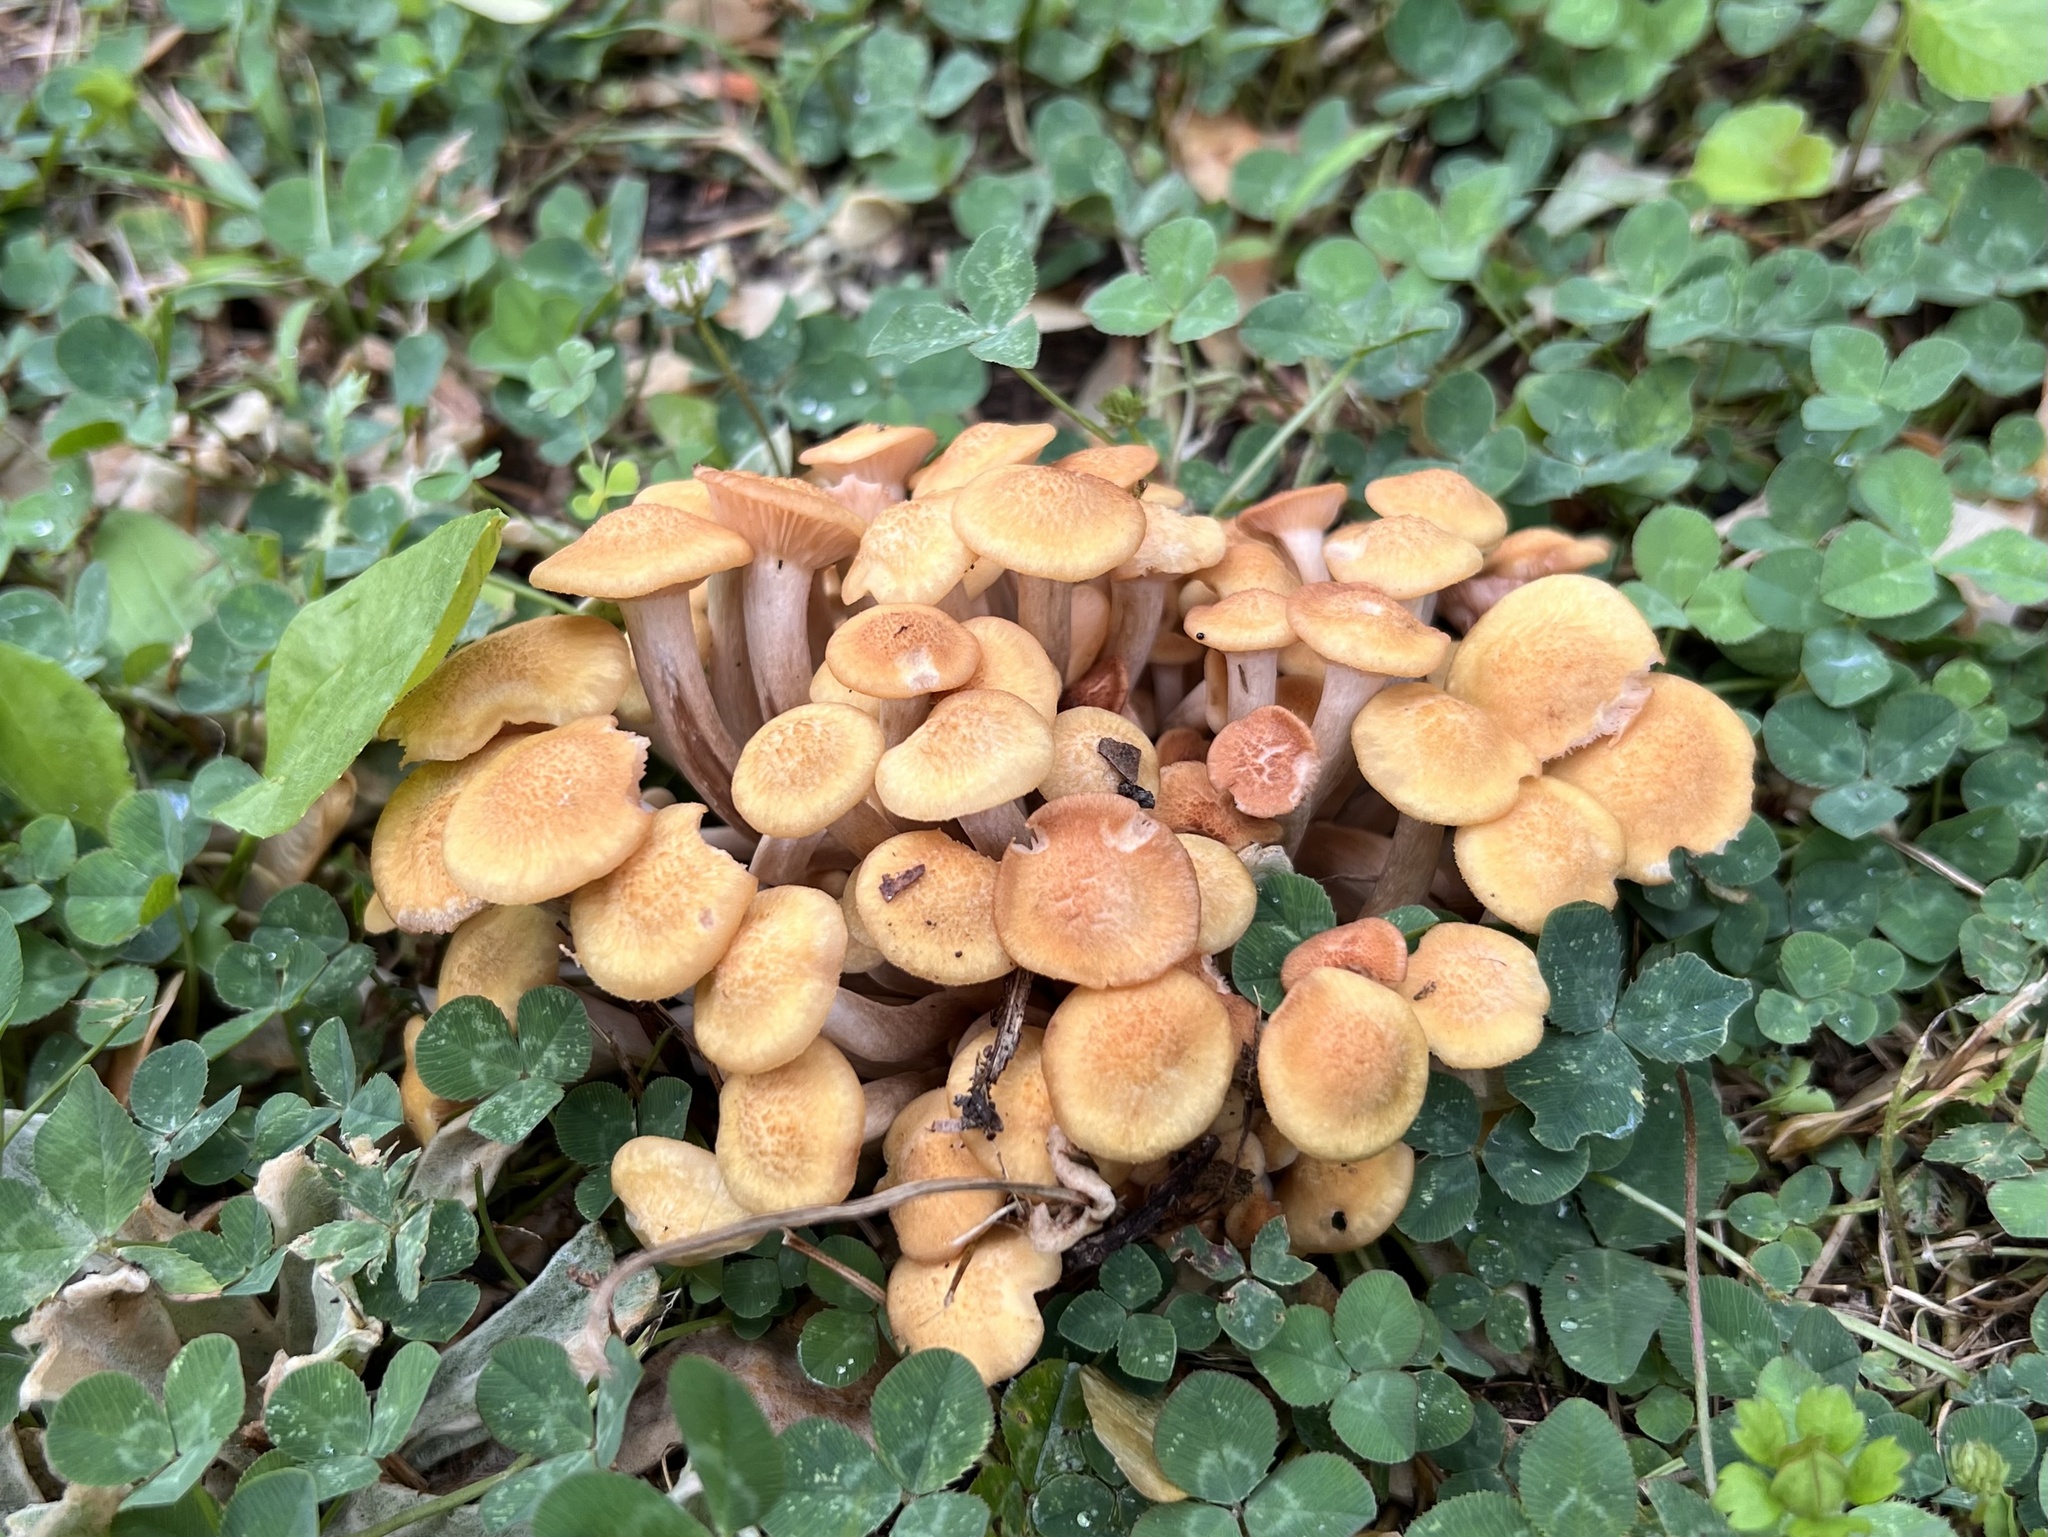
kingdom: Fungi
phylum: Basidiomycota
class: Agaricomycetes
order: Agaricales
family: Physalacriaceae
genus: Desarmillaria
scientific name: Desarmillaria caespitosa
